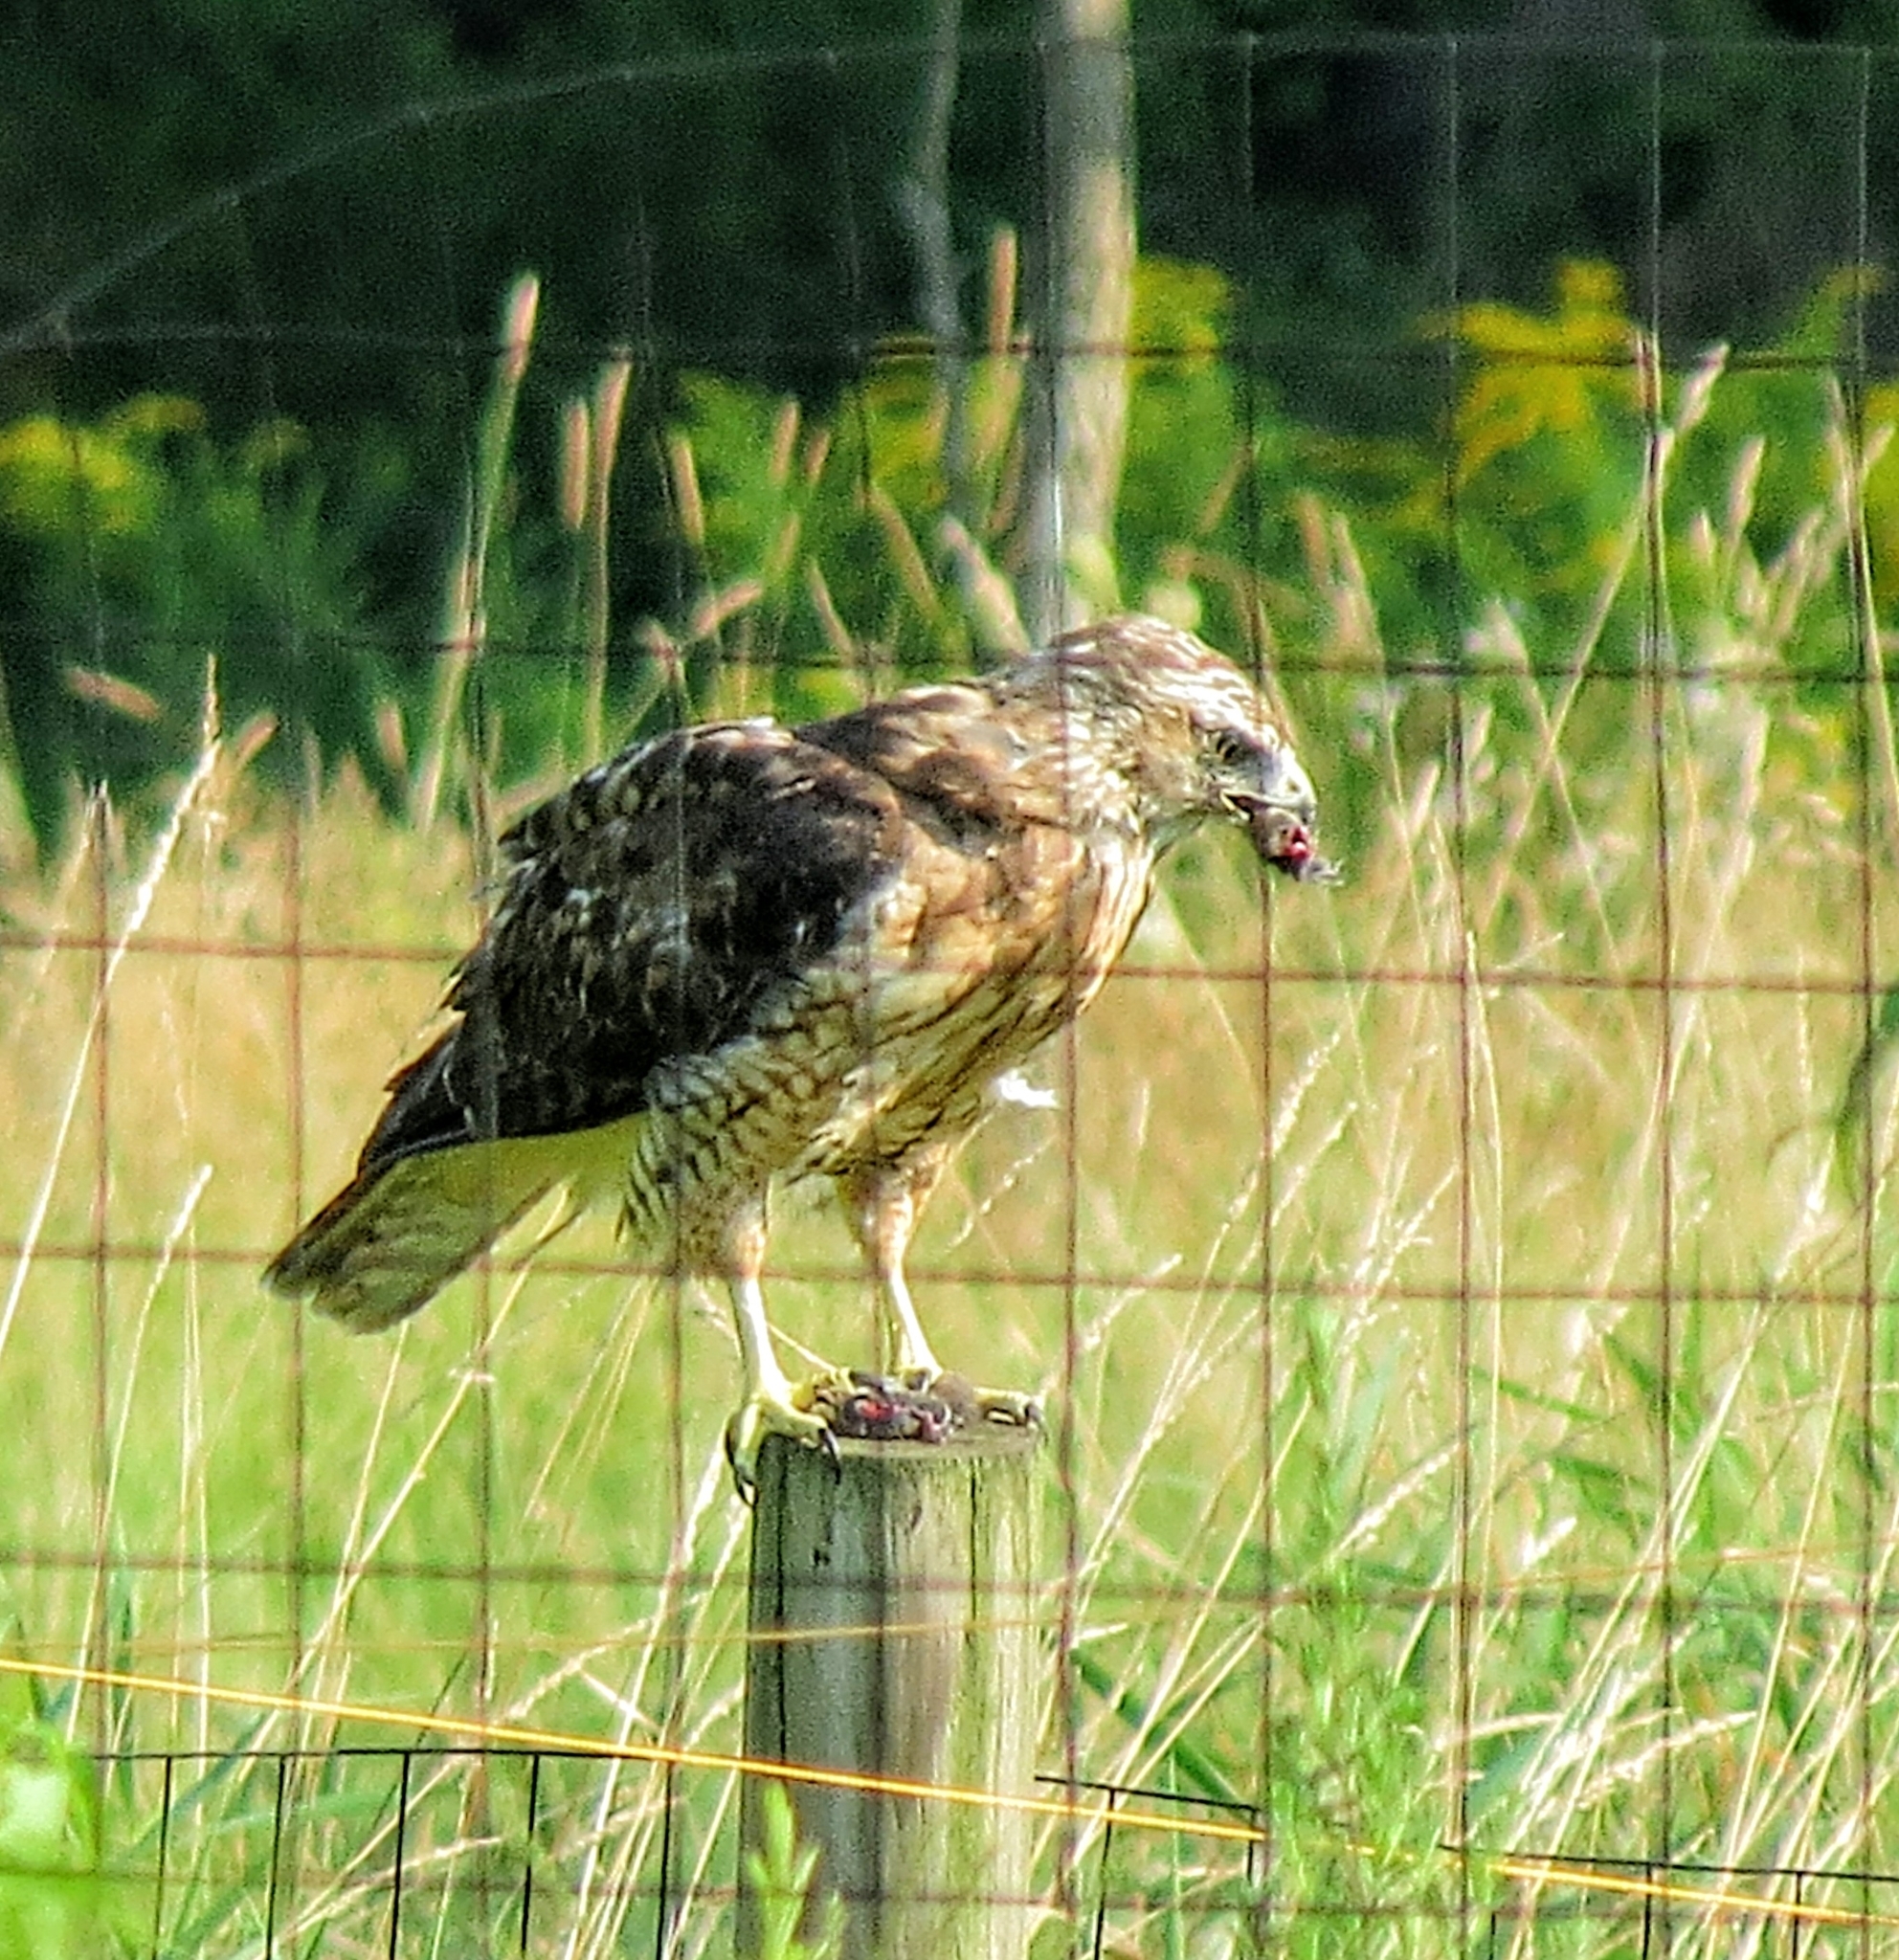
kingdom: Animalia
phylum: Chordata
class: Aves
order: Accipitriformes
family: Accipitridae
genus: Buteo
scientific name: Buteo jamaicensis
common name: Red-tailed hawk
